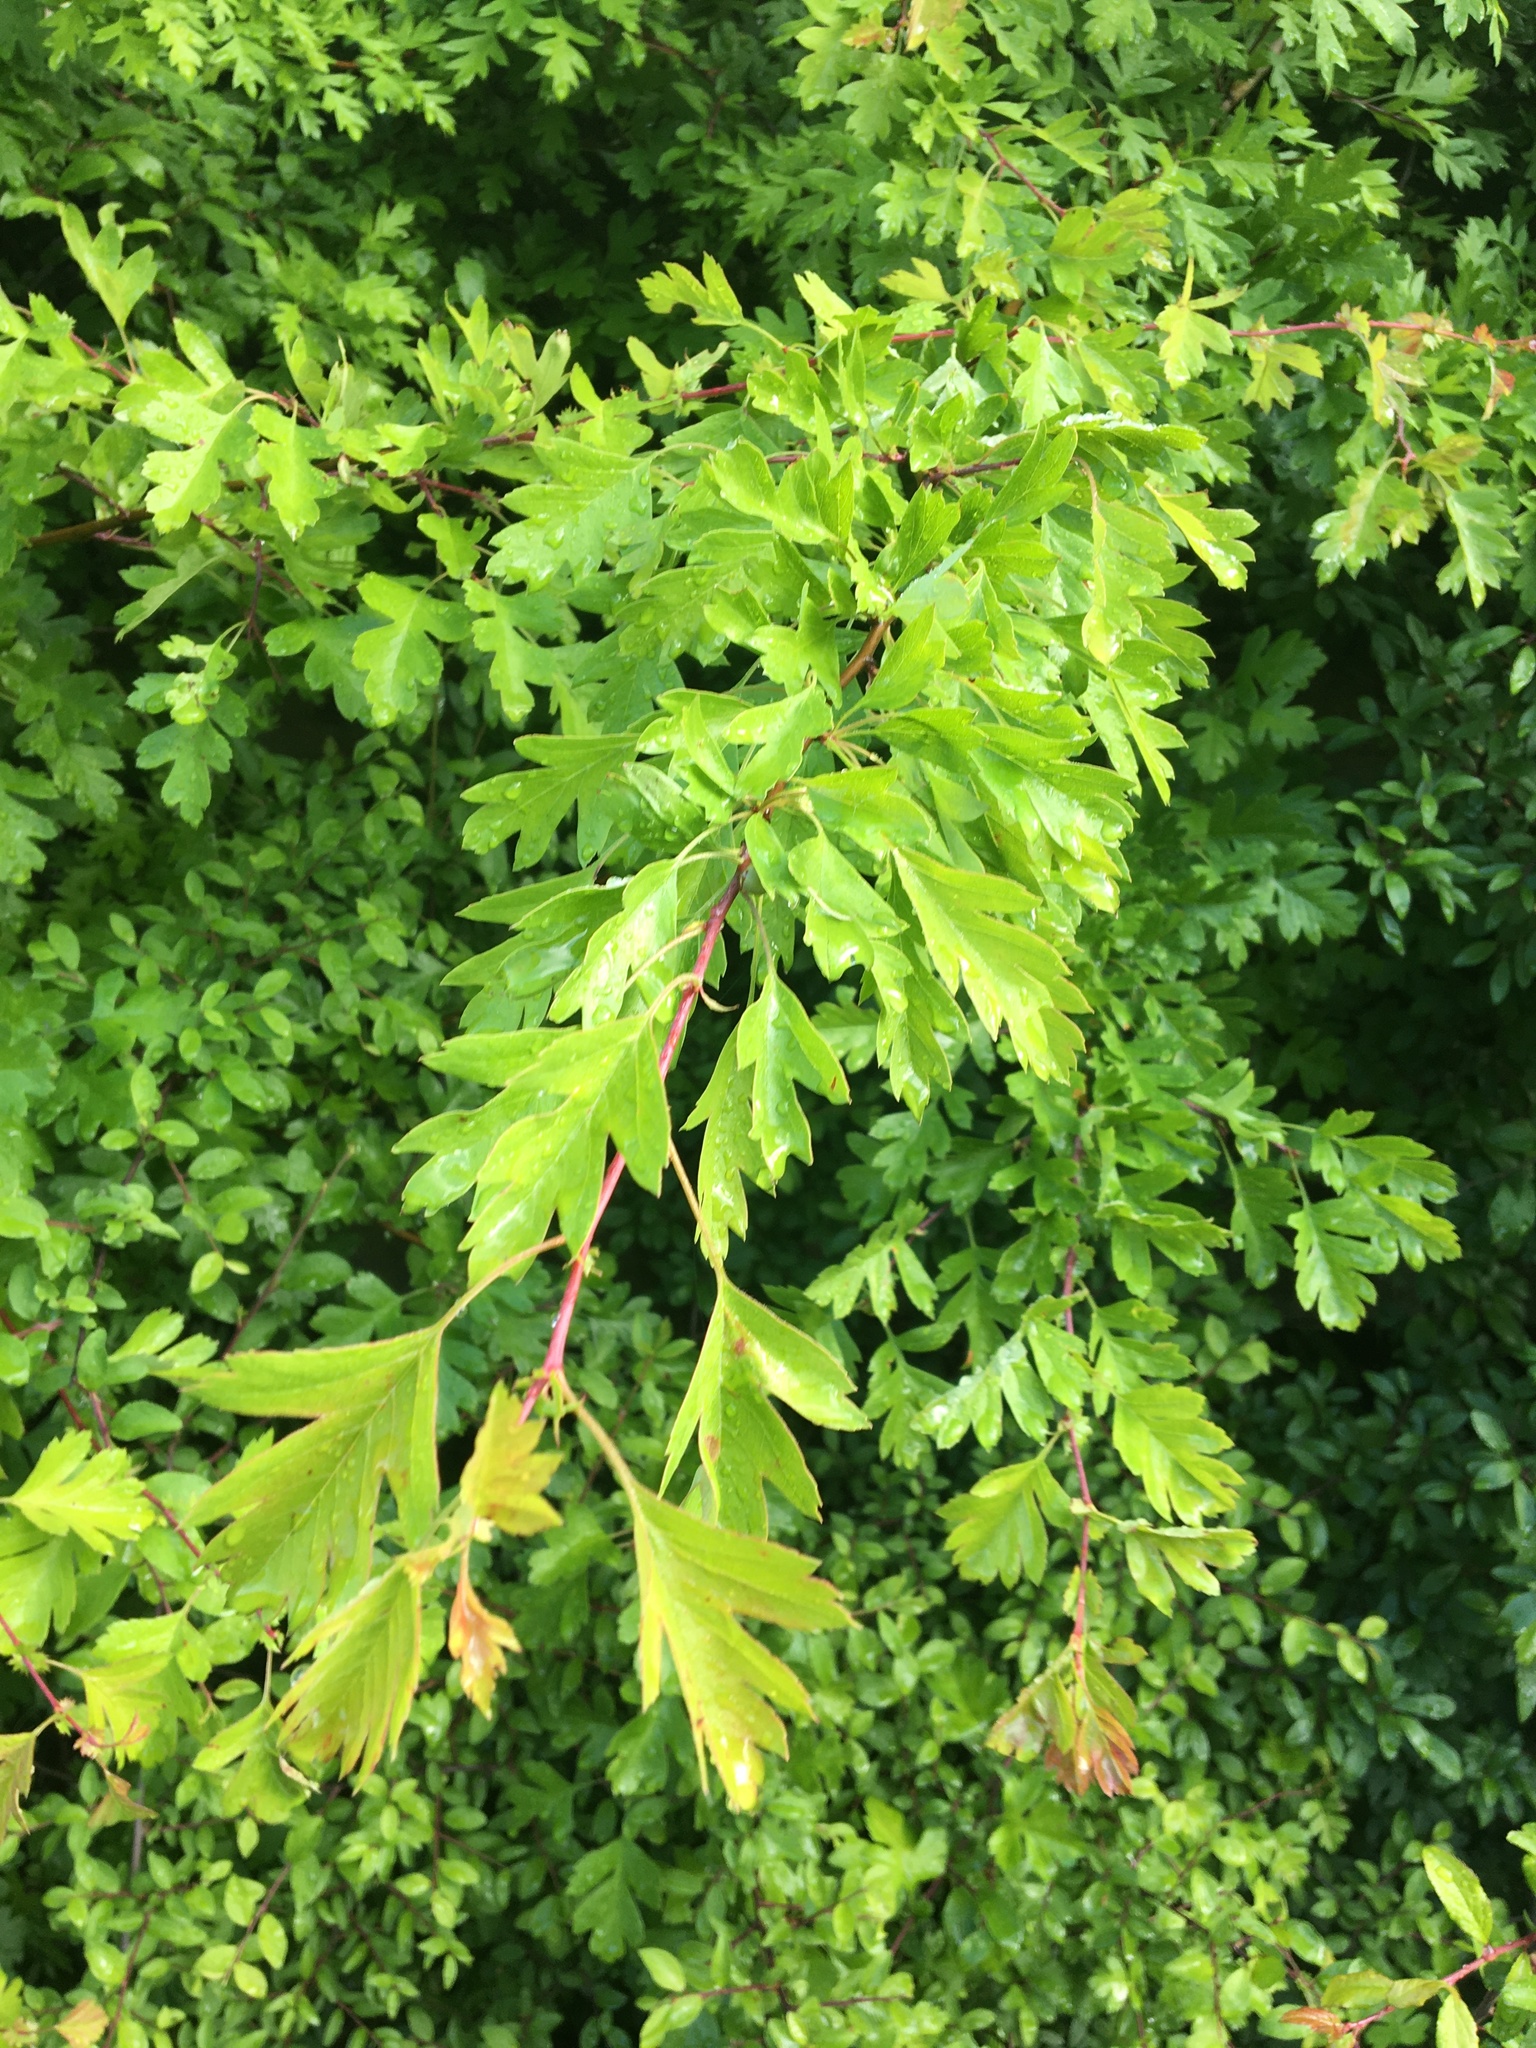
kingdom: Plantae
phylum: Tracheophyta
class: Magnoliopsida
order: Rosales
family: Rosaceae
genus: Crataegus
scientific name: Crataegus monogyna
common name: Hawthorn
